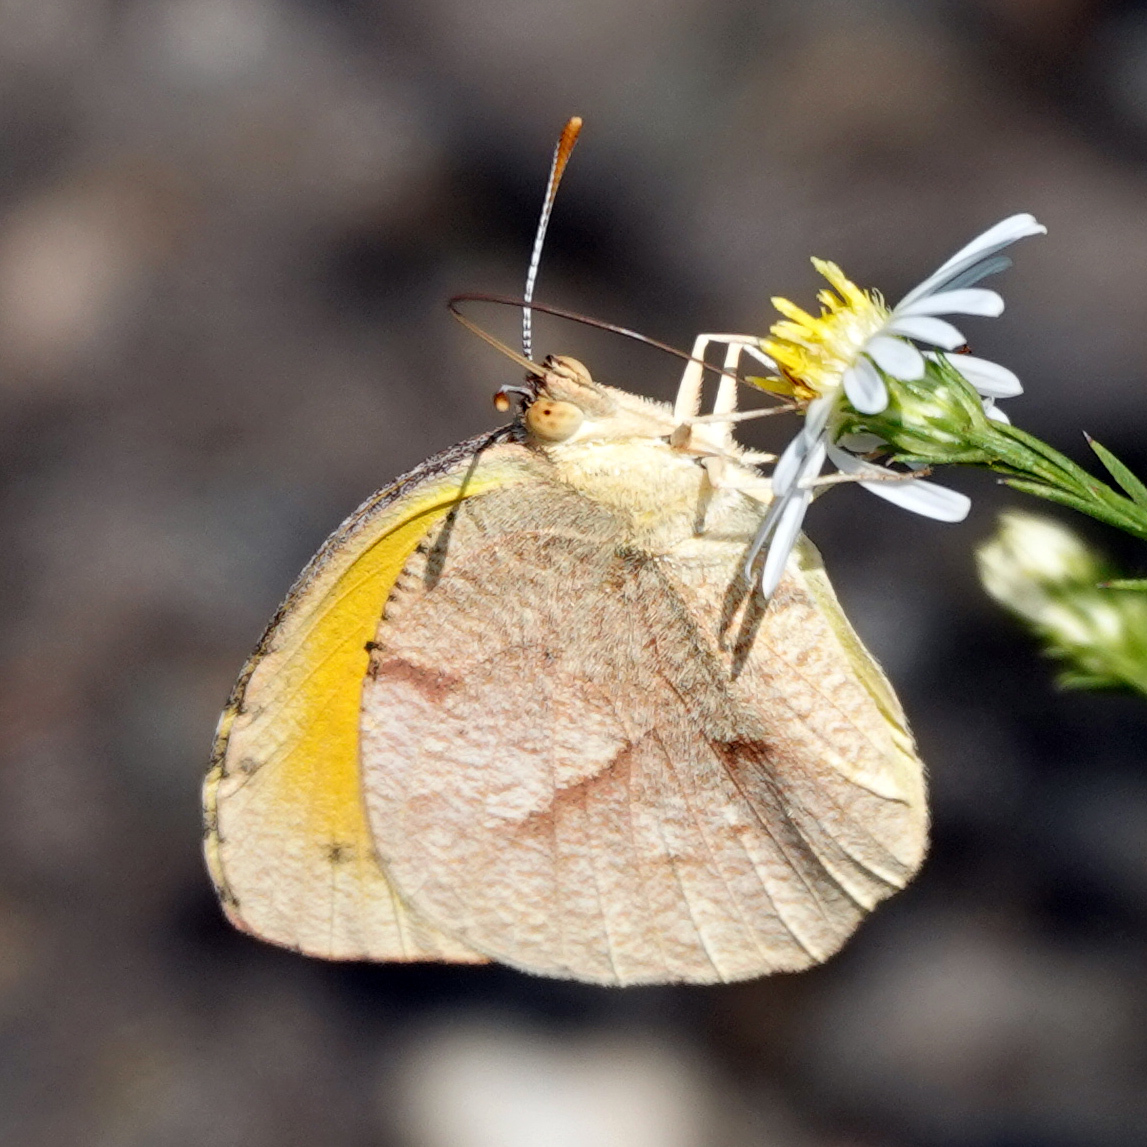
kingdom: Animalia
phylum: Arthropoda
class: Insecta
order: Lepidoptera
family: Pieridae
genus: Abaeis
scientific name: Abaeis nicippe
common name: Sleepy orange
